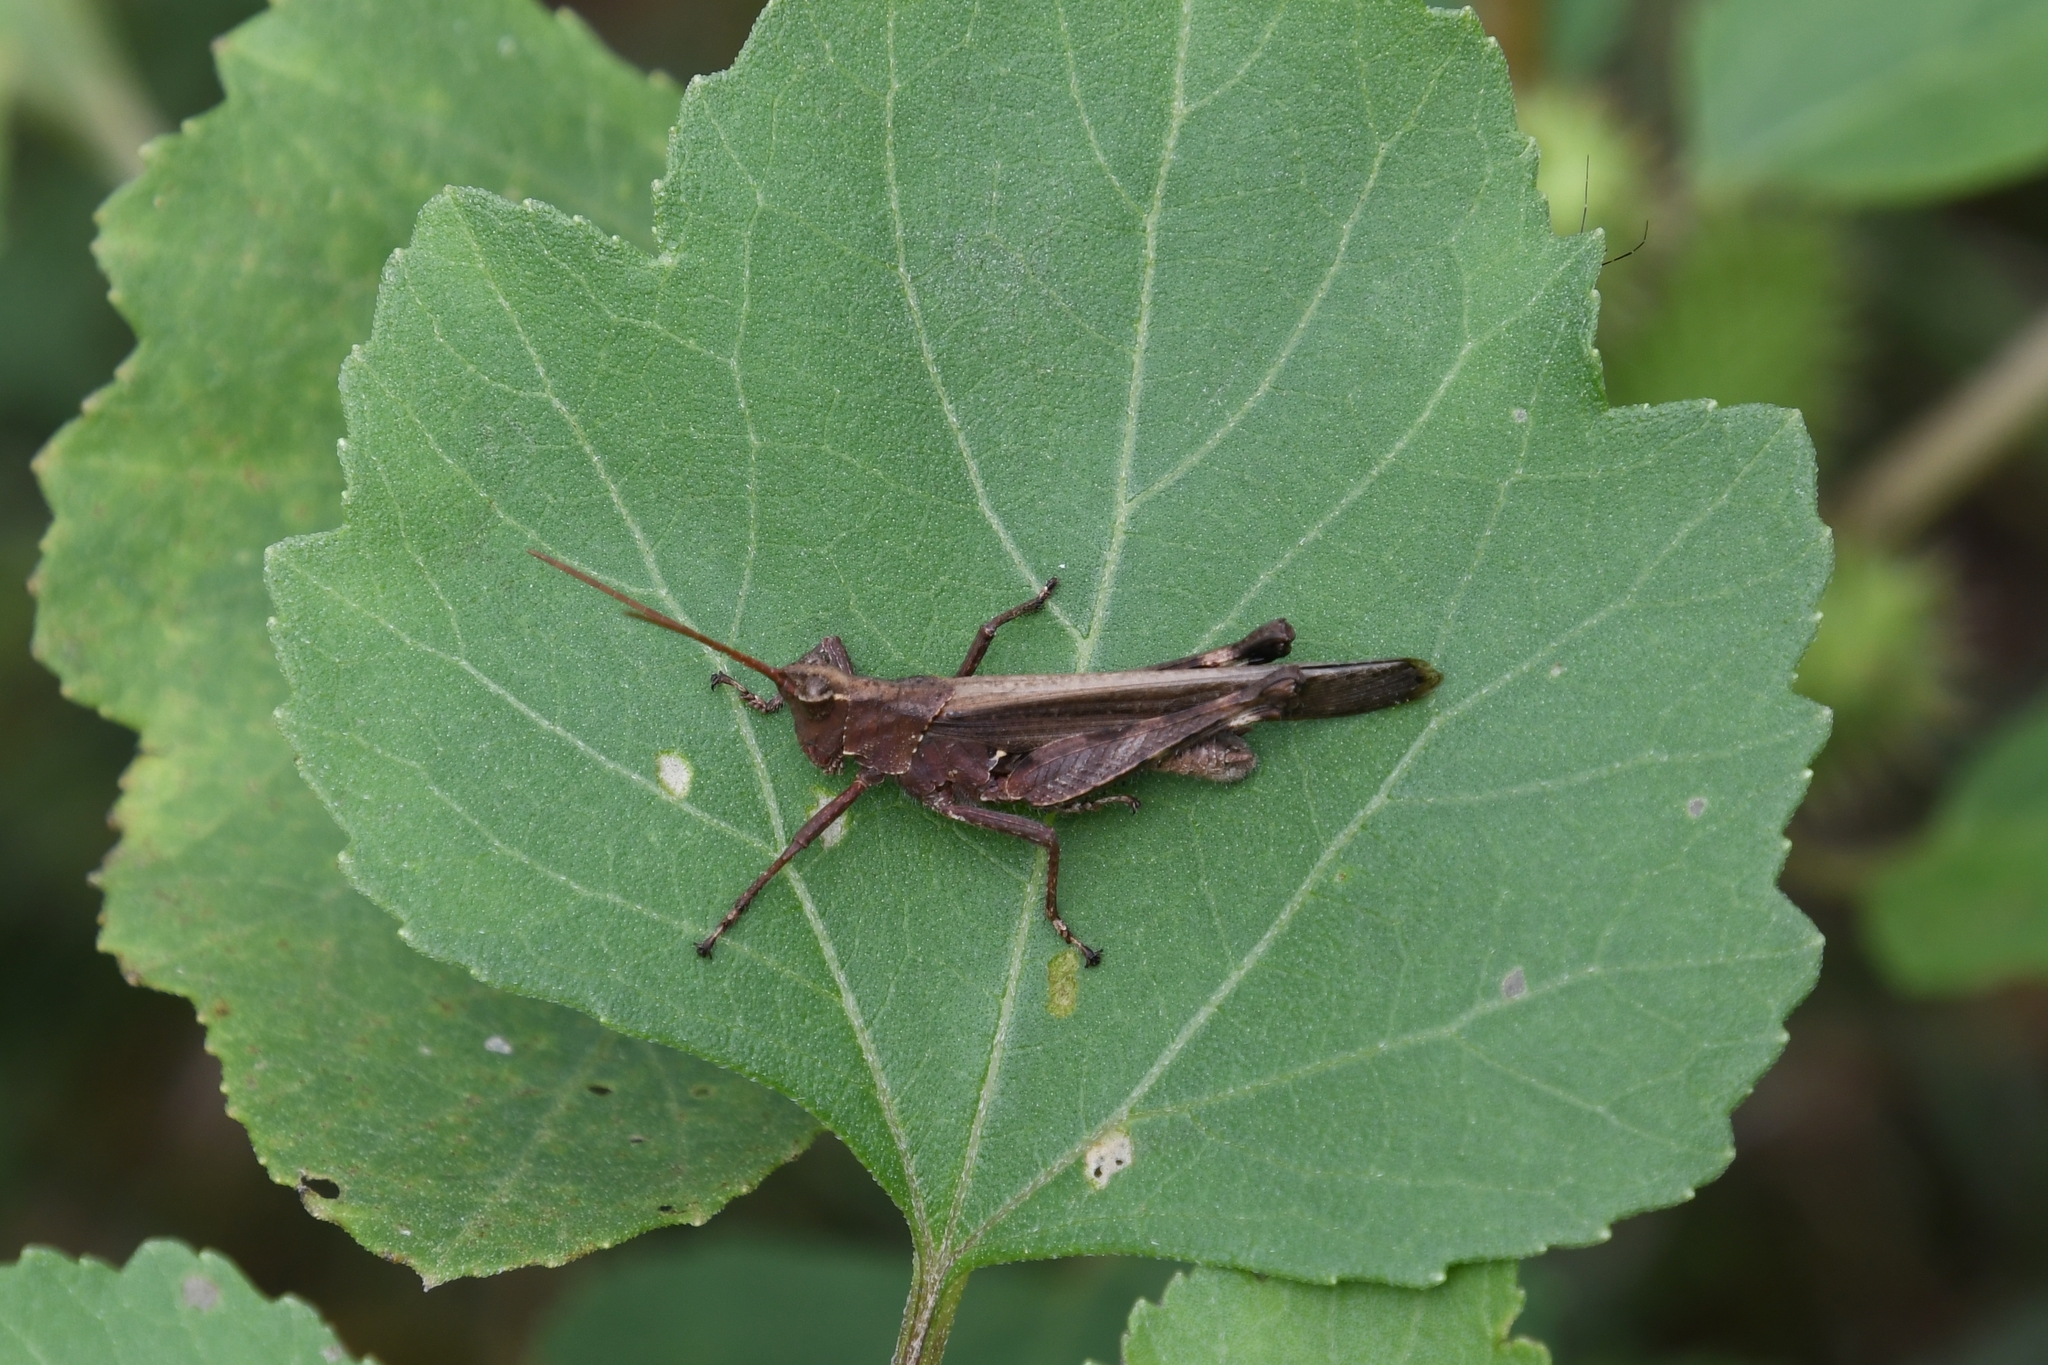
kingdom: Animalia
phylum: Arthropoda
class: Insecta
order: Orthoptera
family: Acrididae
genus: Machaerocera
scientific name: Machaerocera mexicana
